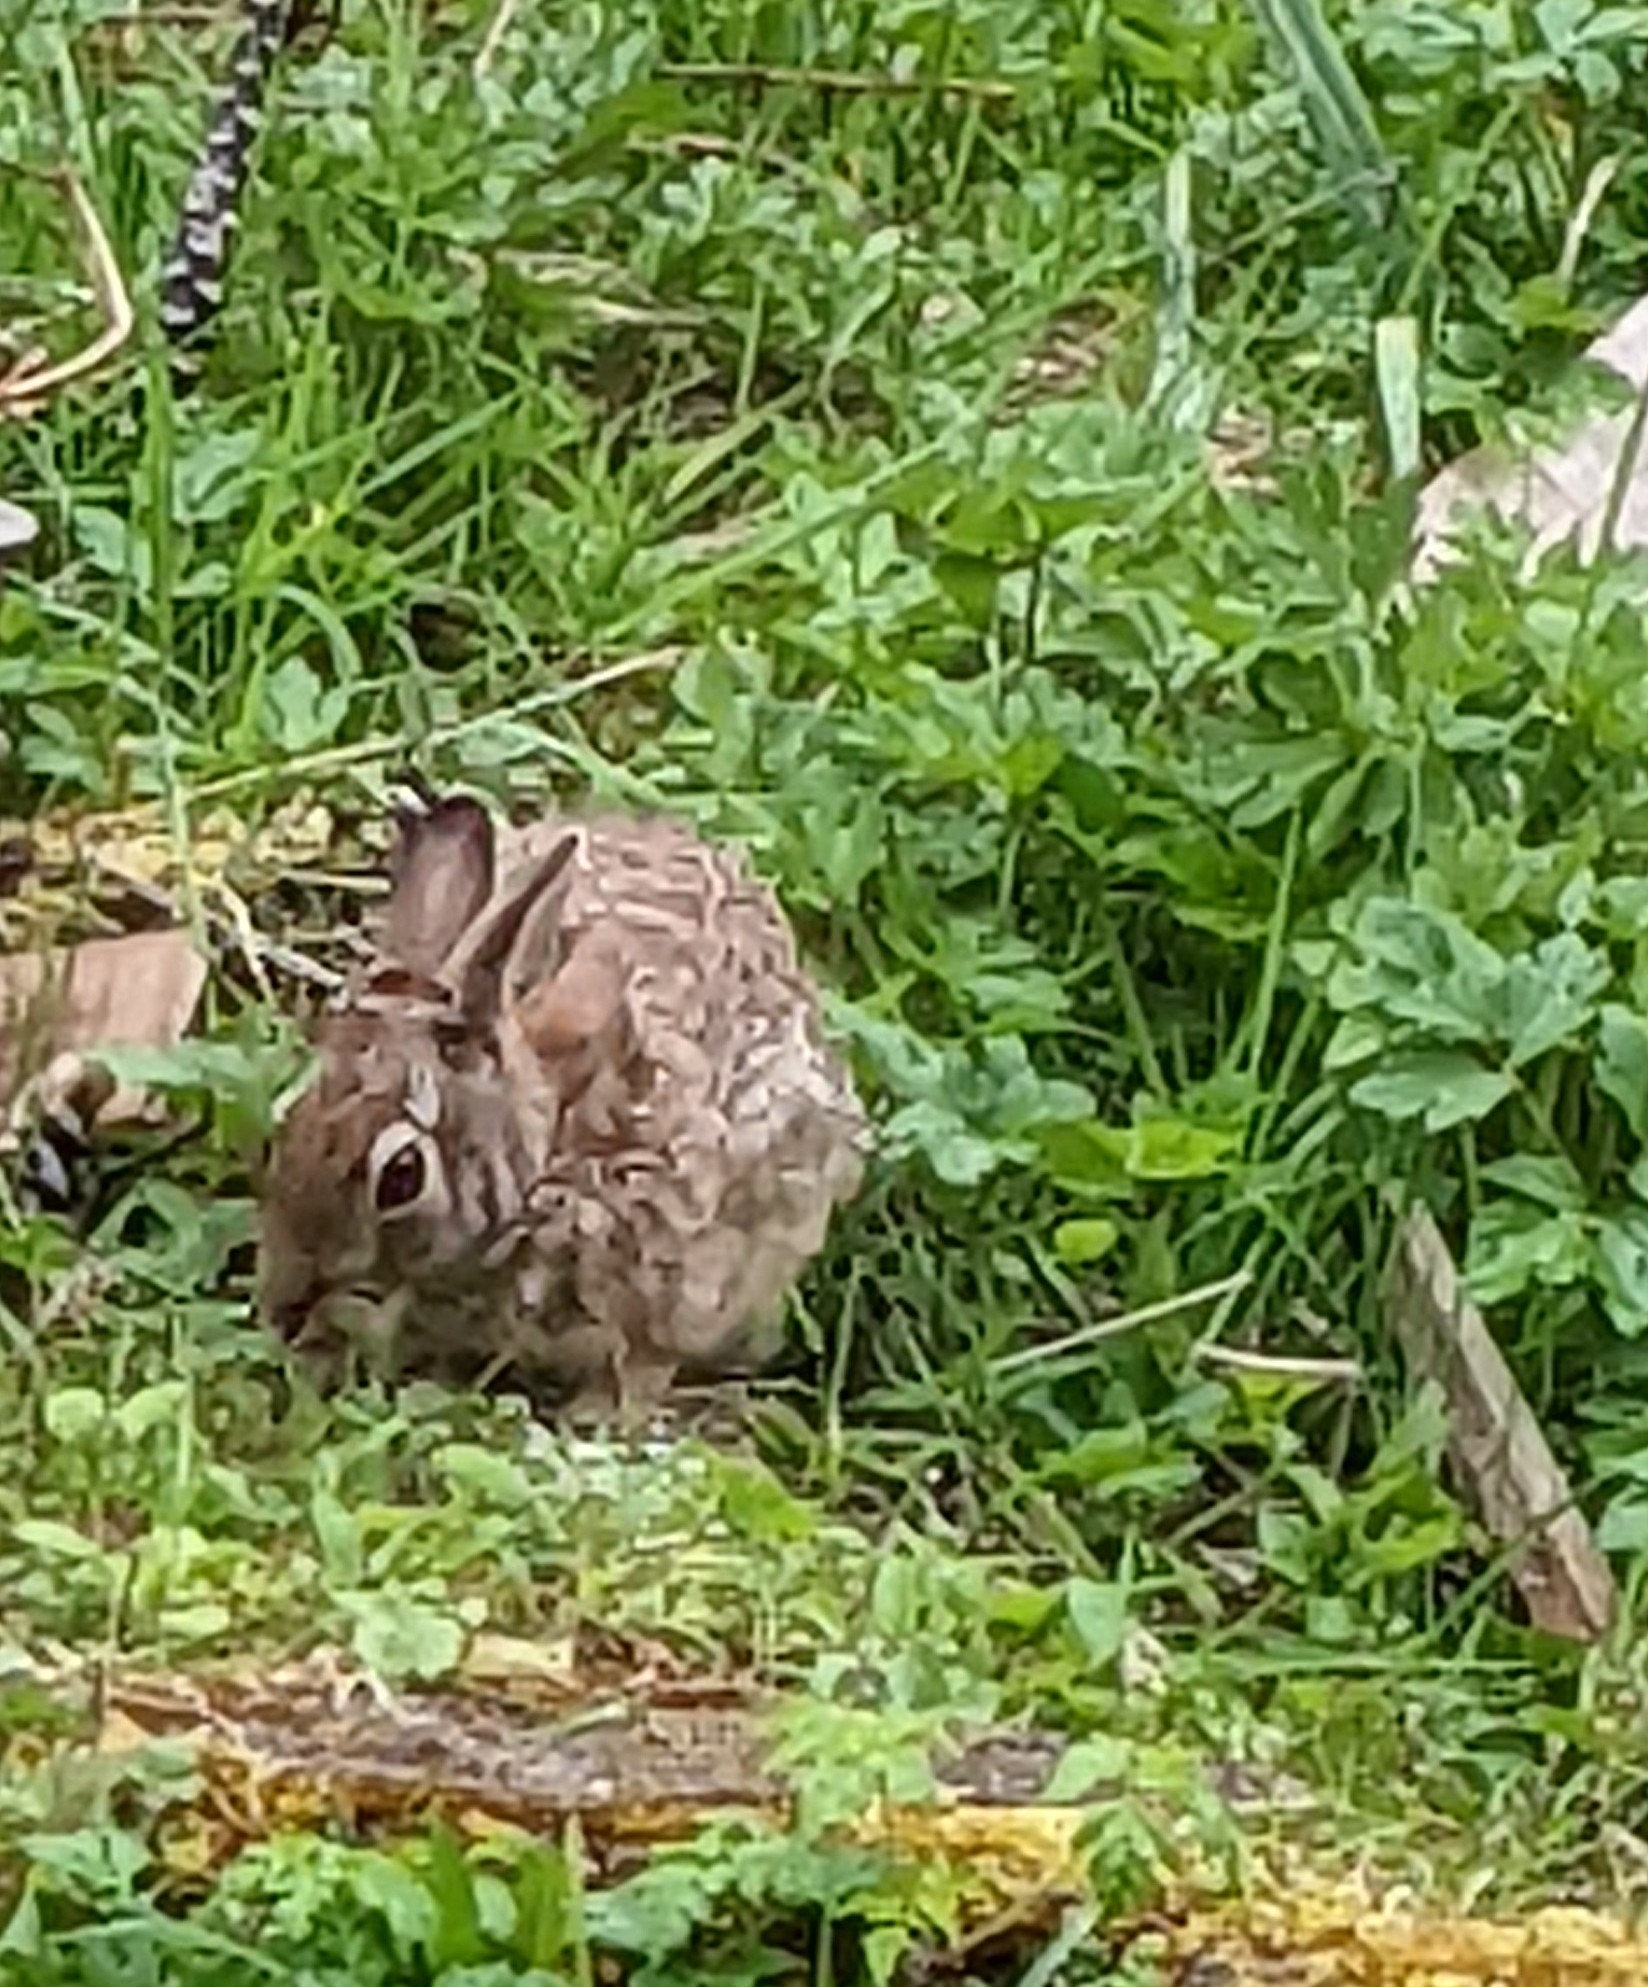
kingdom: Animalia
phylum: Chordata
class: Mammalia
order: Lagomorpha
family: Leporidae
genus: Sylvilagus
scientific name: Sylvilagus floridanus
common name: Eastern cottontail
